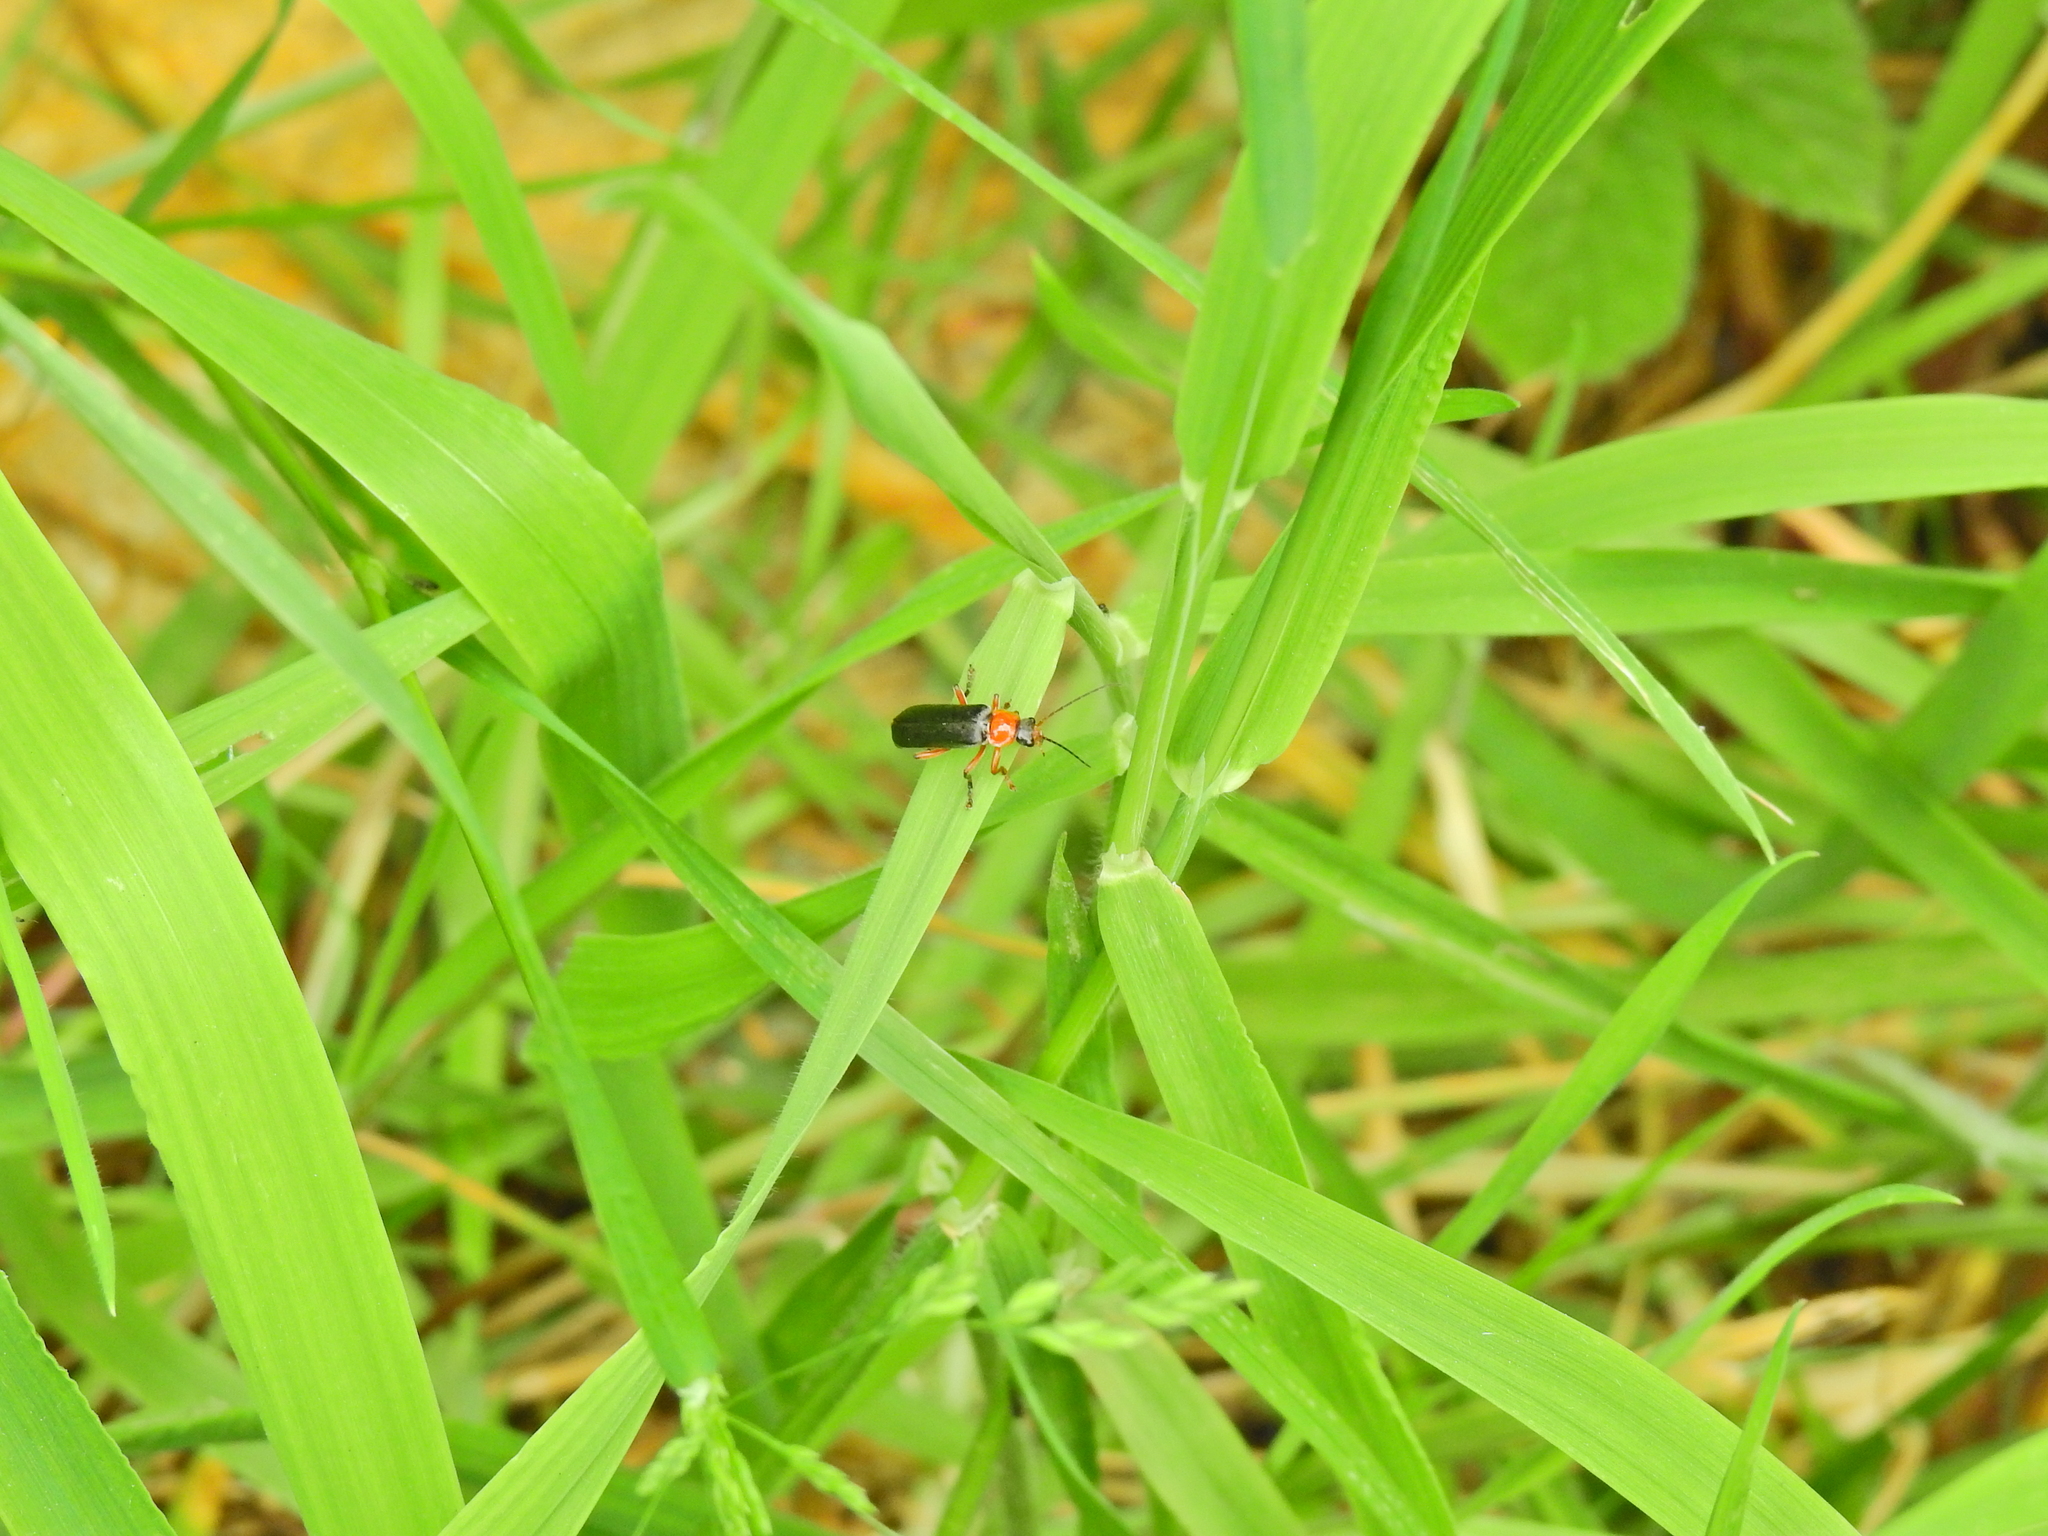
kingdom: Animalia
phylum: Arthropoda
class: Insecta
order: Coleoptera
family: Cantharidae
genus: Cantharis
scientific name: Cantharis pellucida
